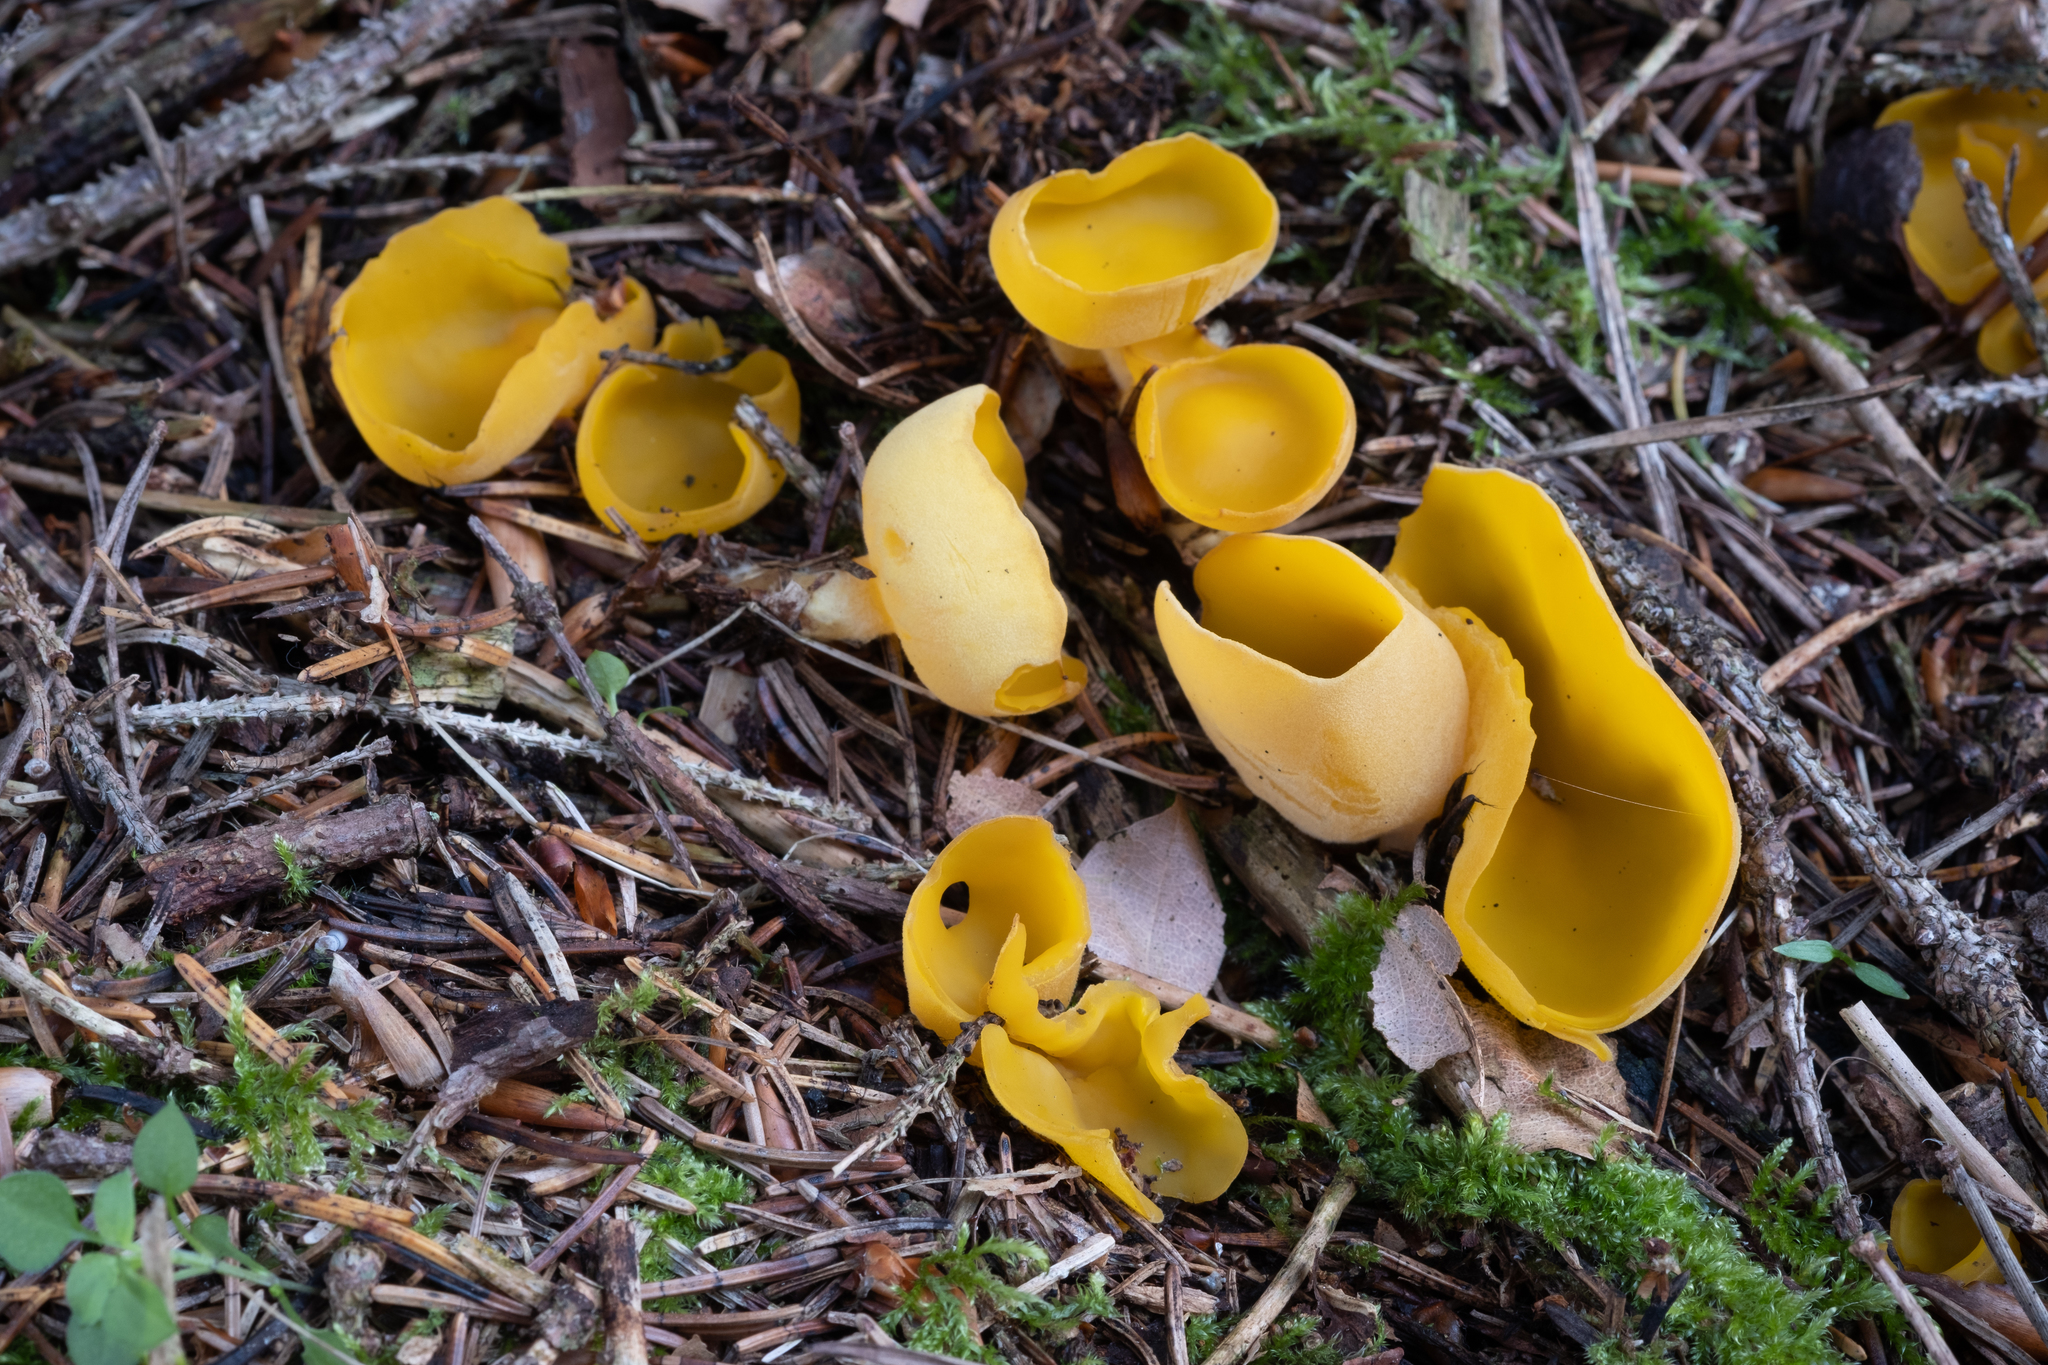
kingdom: Fungi
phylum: Ascomycota
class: Pezizomycetes
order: Pezizales
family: Pyronemataceae
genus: Sowerbyella
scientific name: Sowerbyella imperialis
